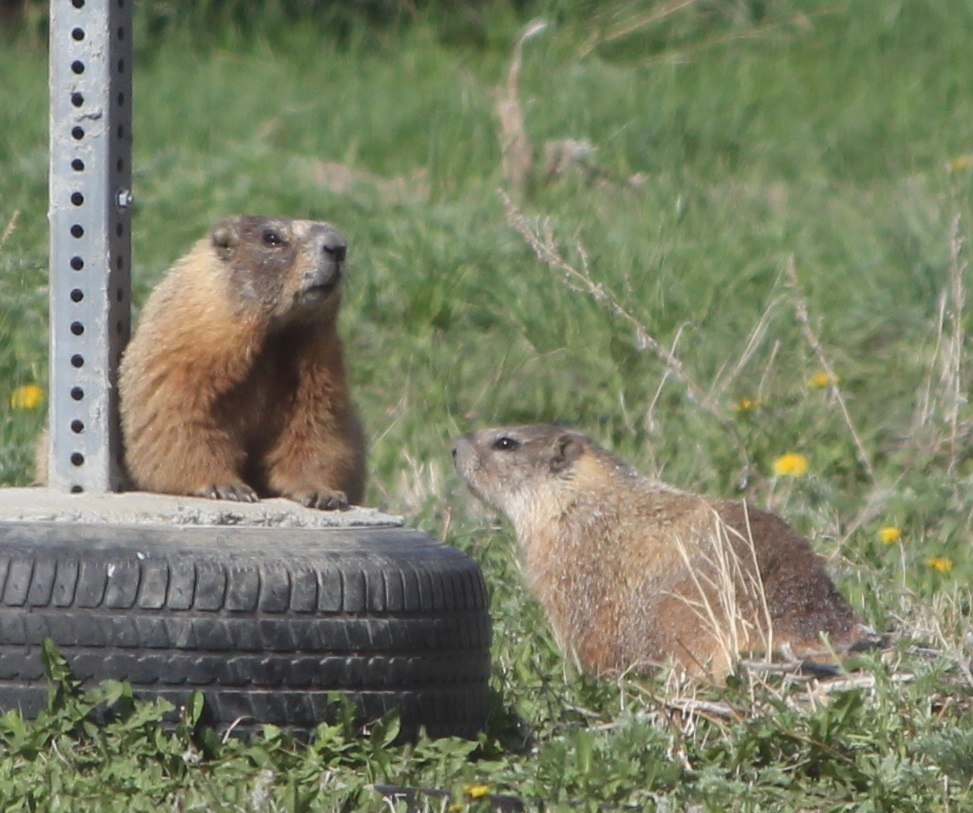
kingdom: Animalia
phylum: Chordata
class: Mammalia
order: Rodentia
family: Sciuridae
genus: Marmota
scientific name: Marmota flaviventris
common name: Yellow-bellied marmot
